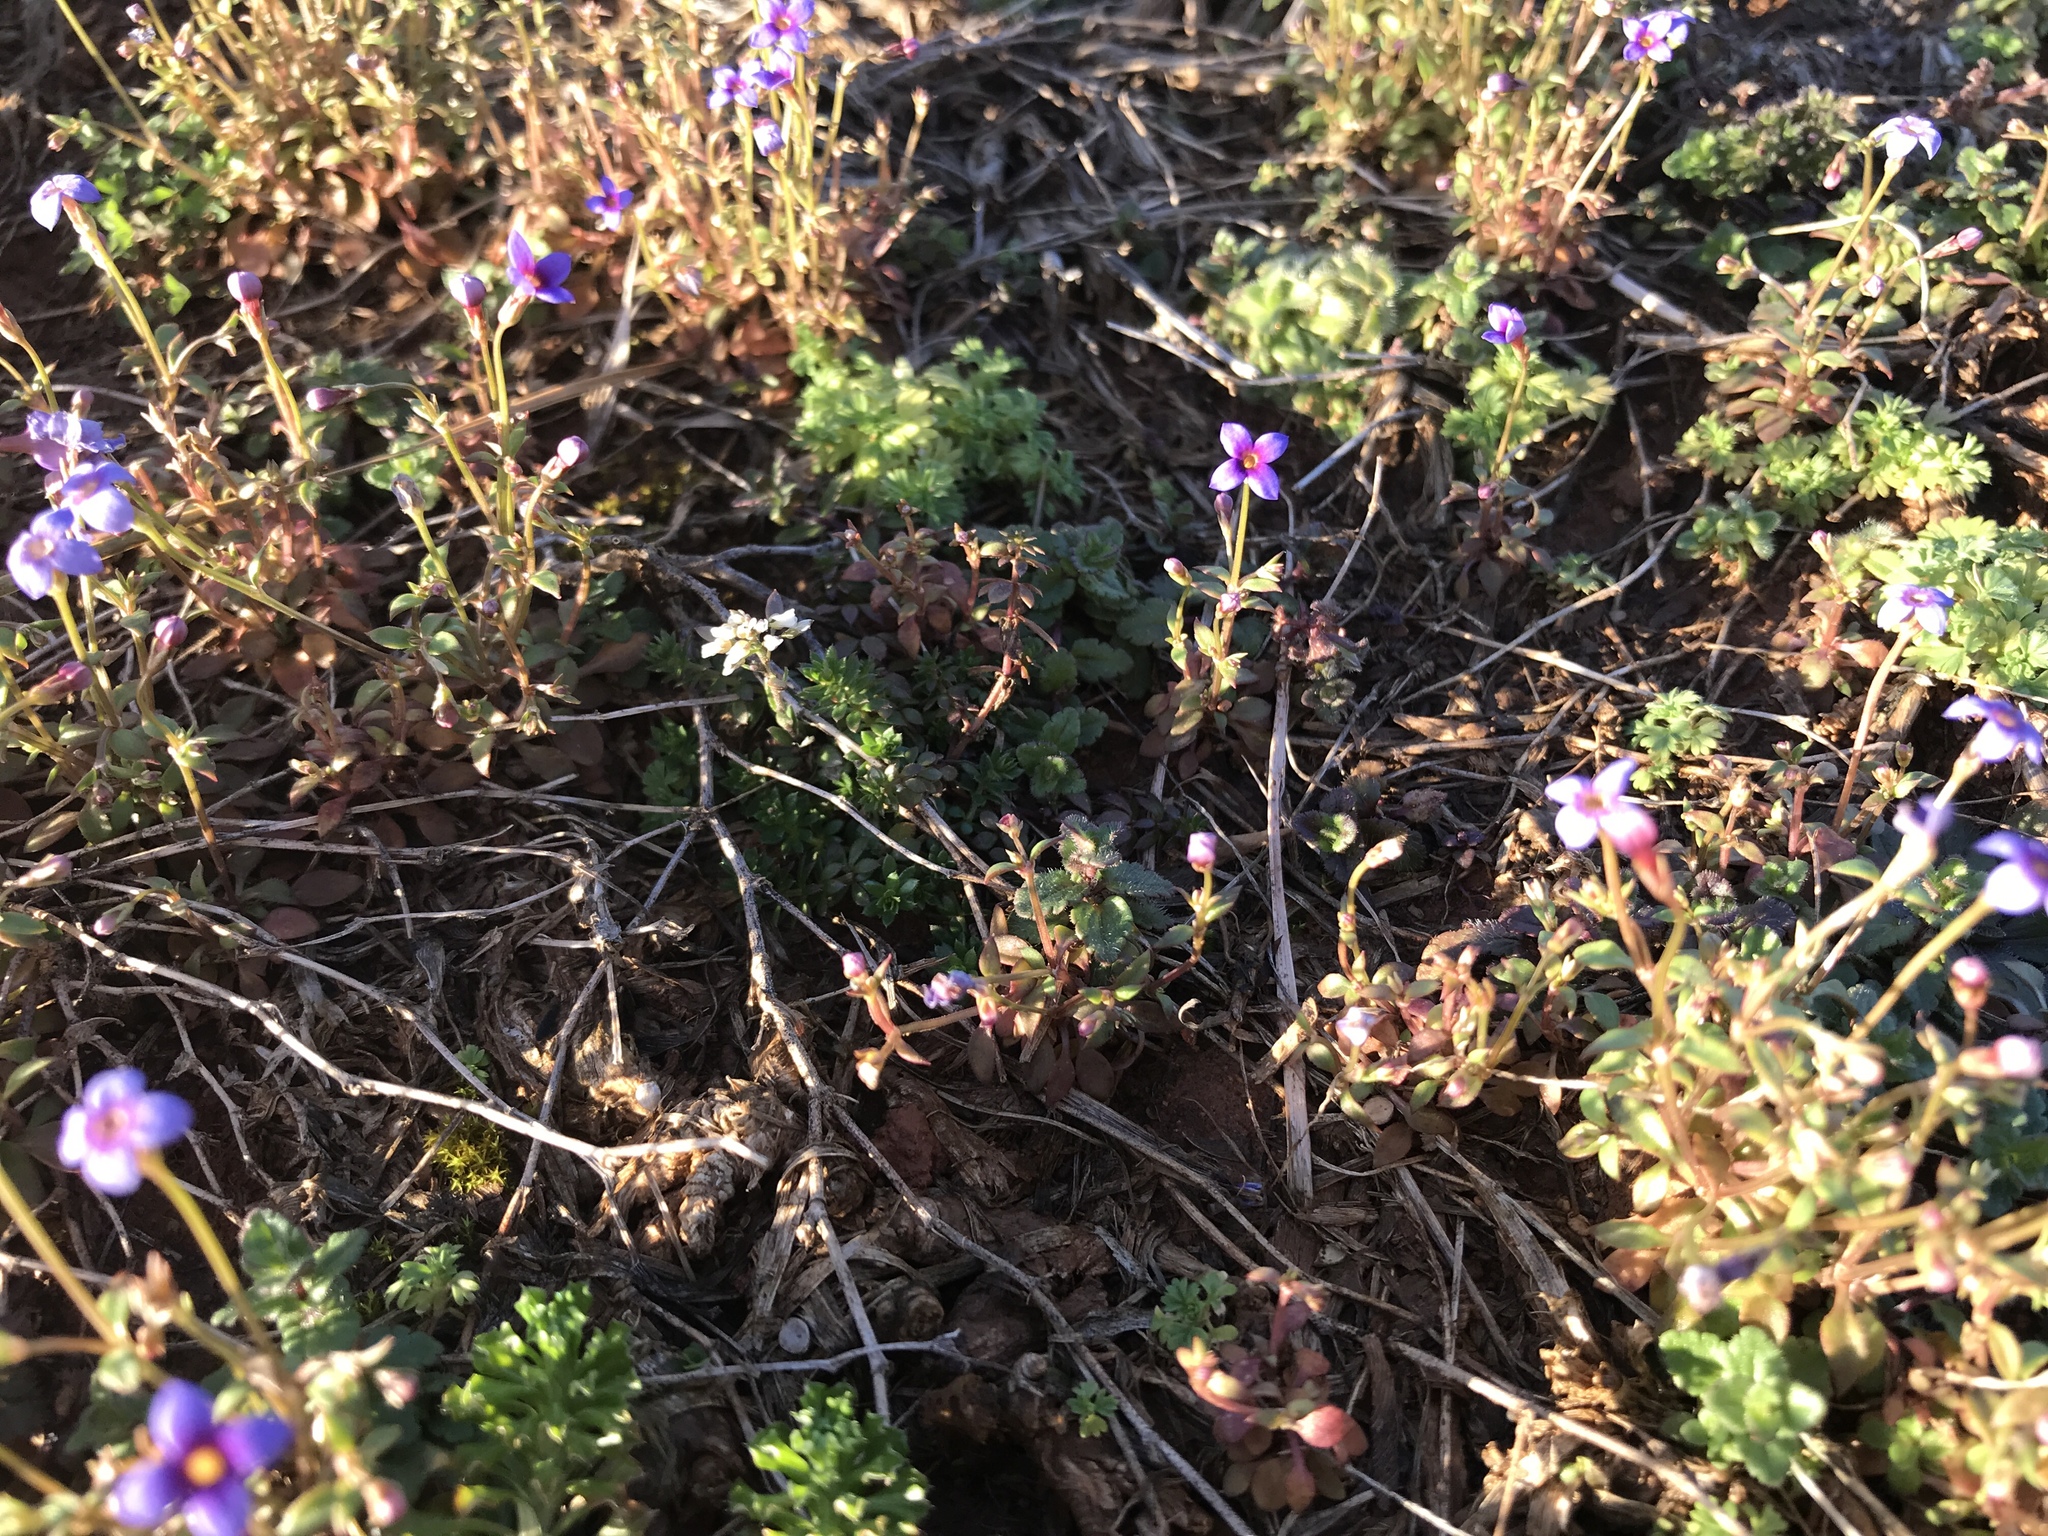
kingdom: Plantae
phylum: Tracheophyta
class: Magnoliopsida
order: Gentianales
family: Rubiaceae
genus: Houstonia
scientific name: Houstonia pusilla
